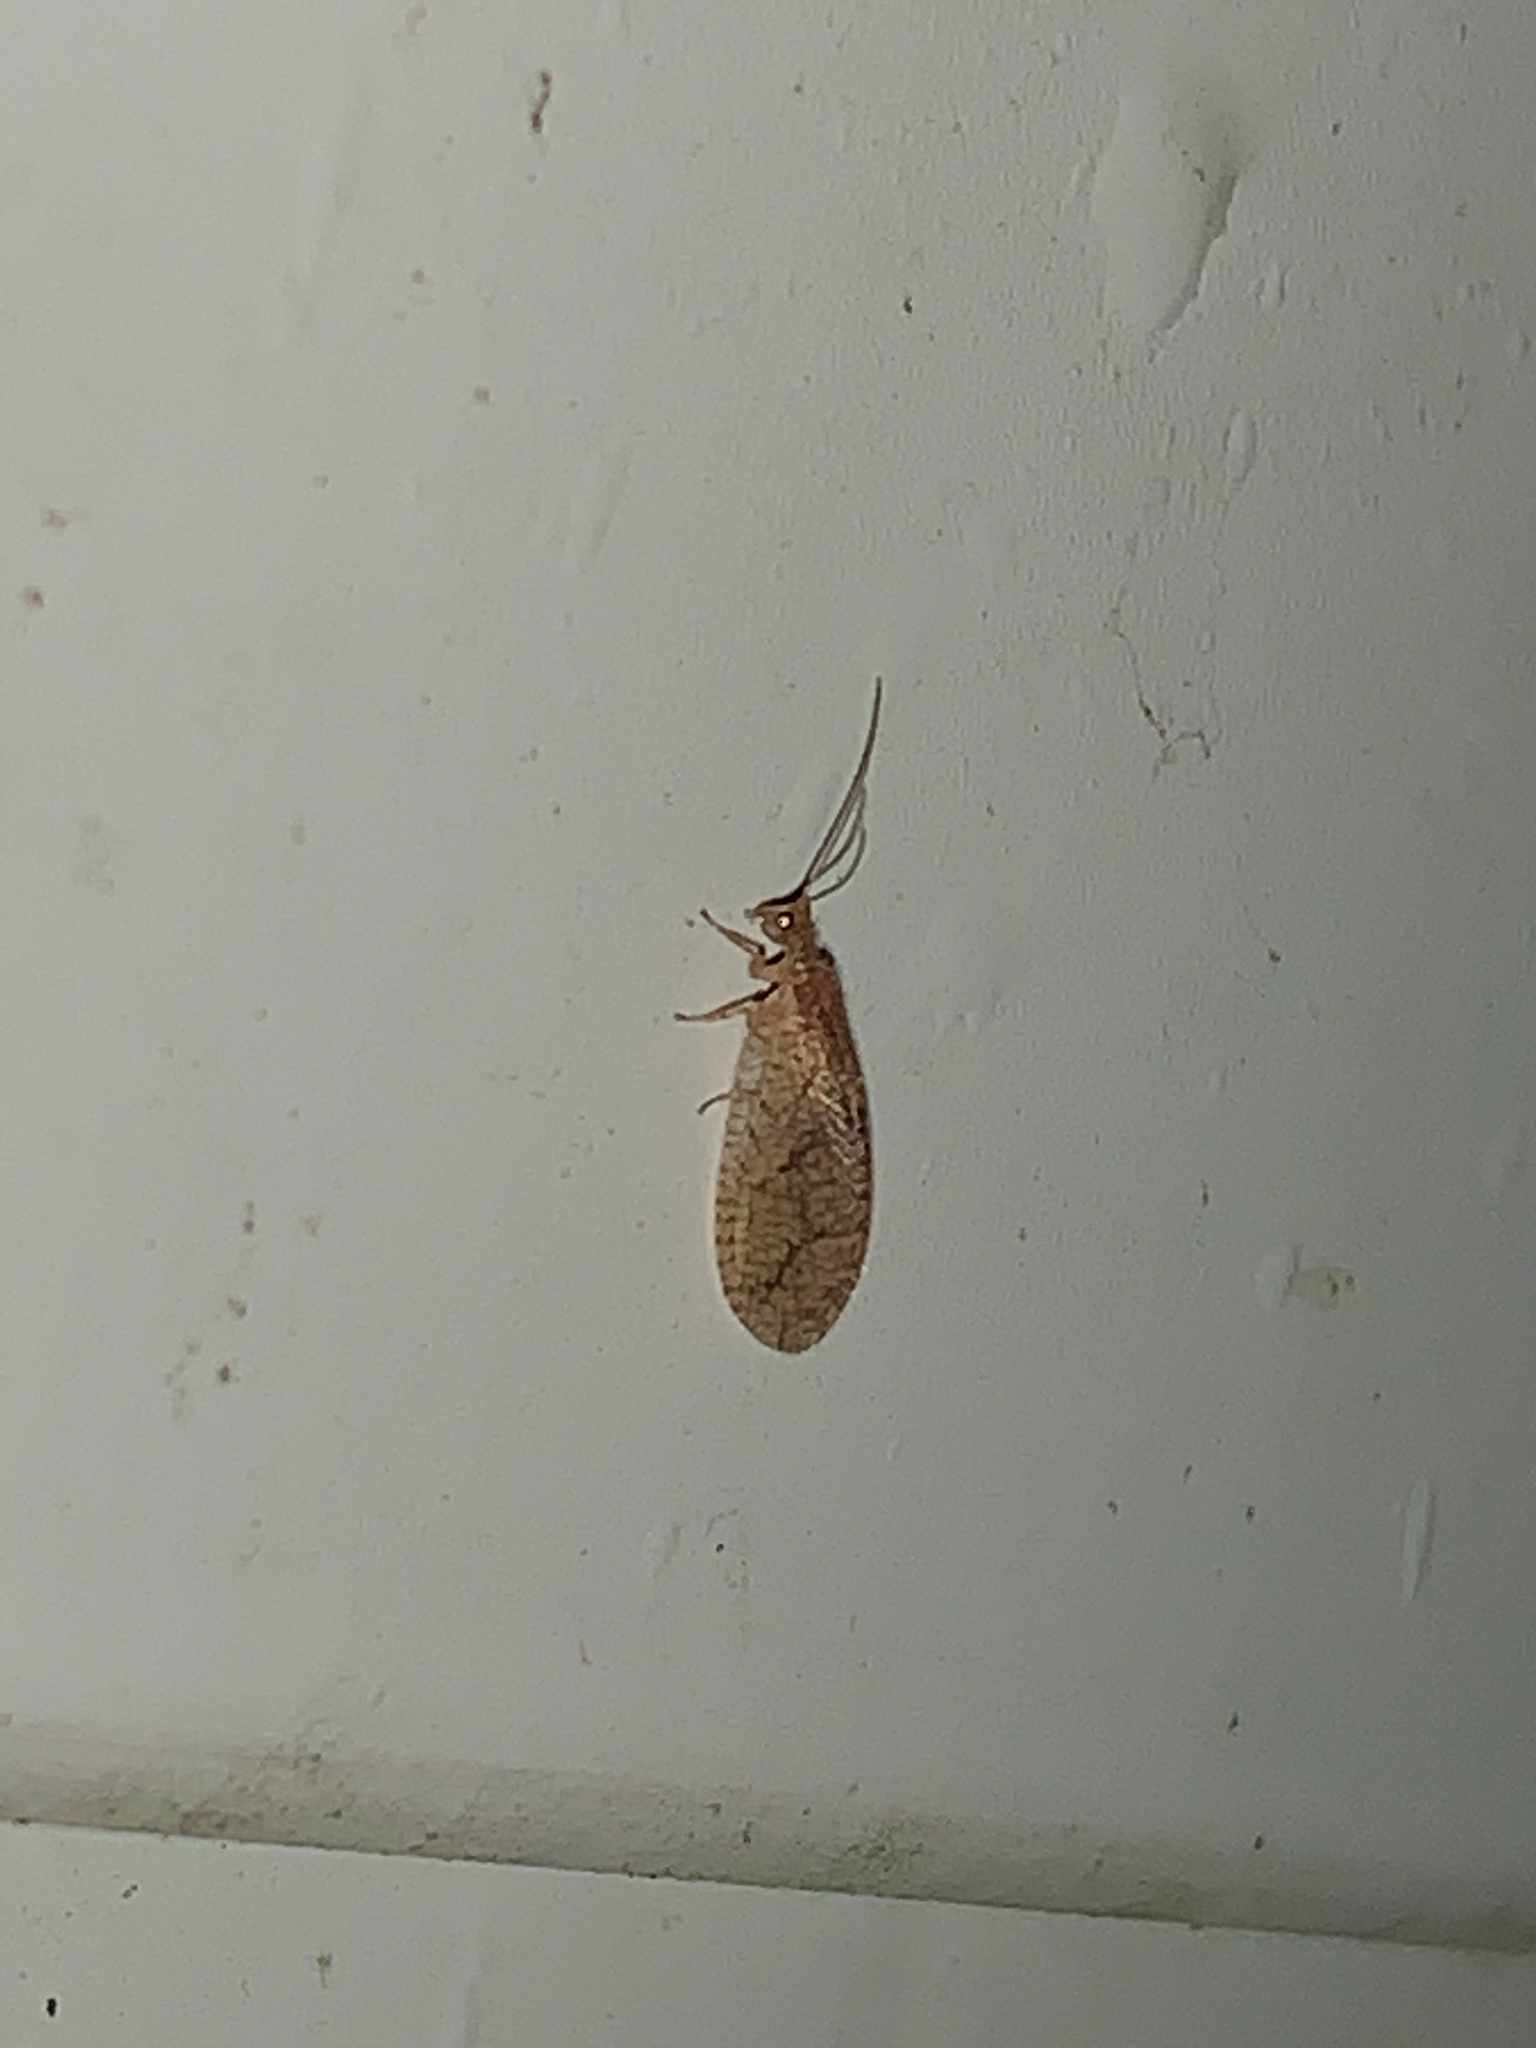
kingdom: Animalia
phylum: Arthropoda
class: Insecta
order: Neuroptera
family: Hemerobiidae
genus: Micromus
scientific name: Micromus posticus
